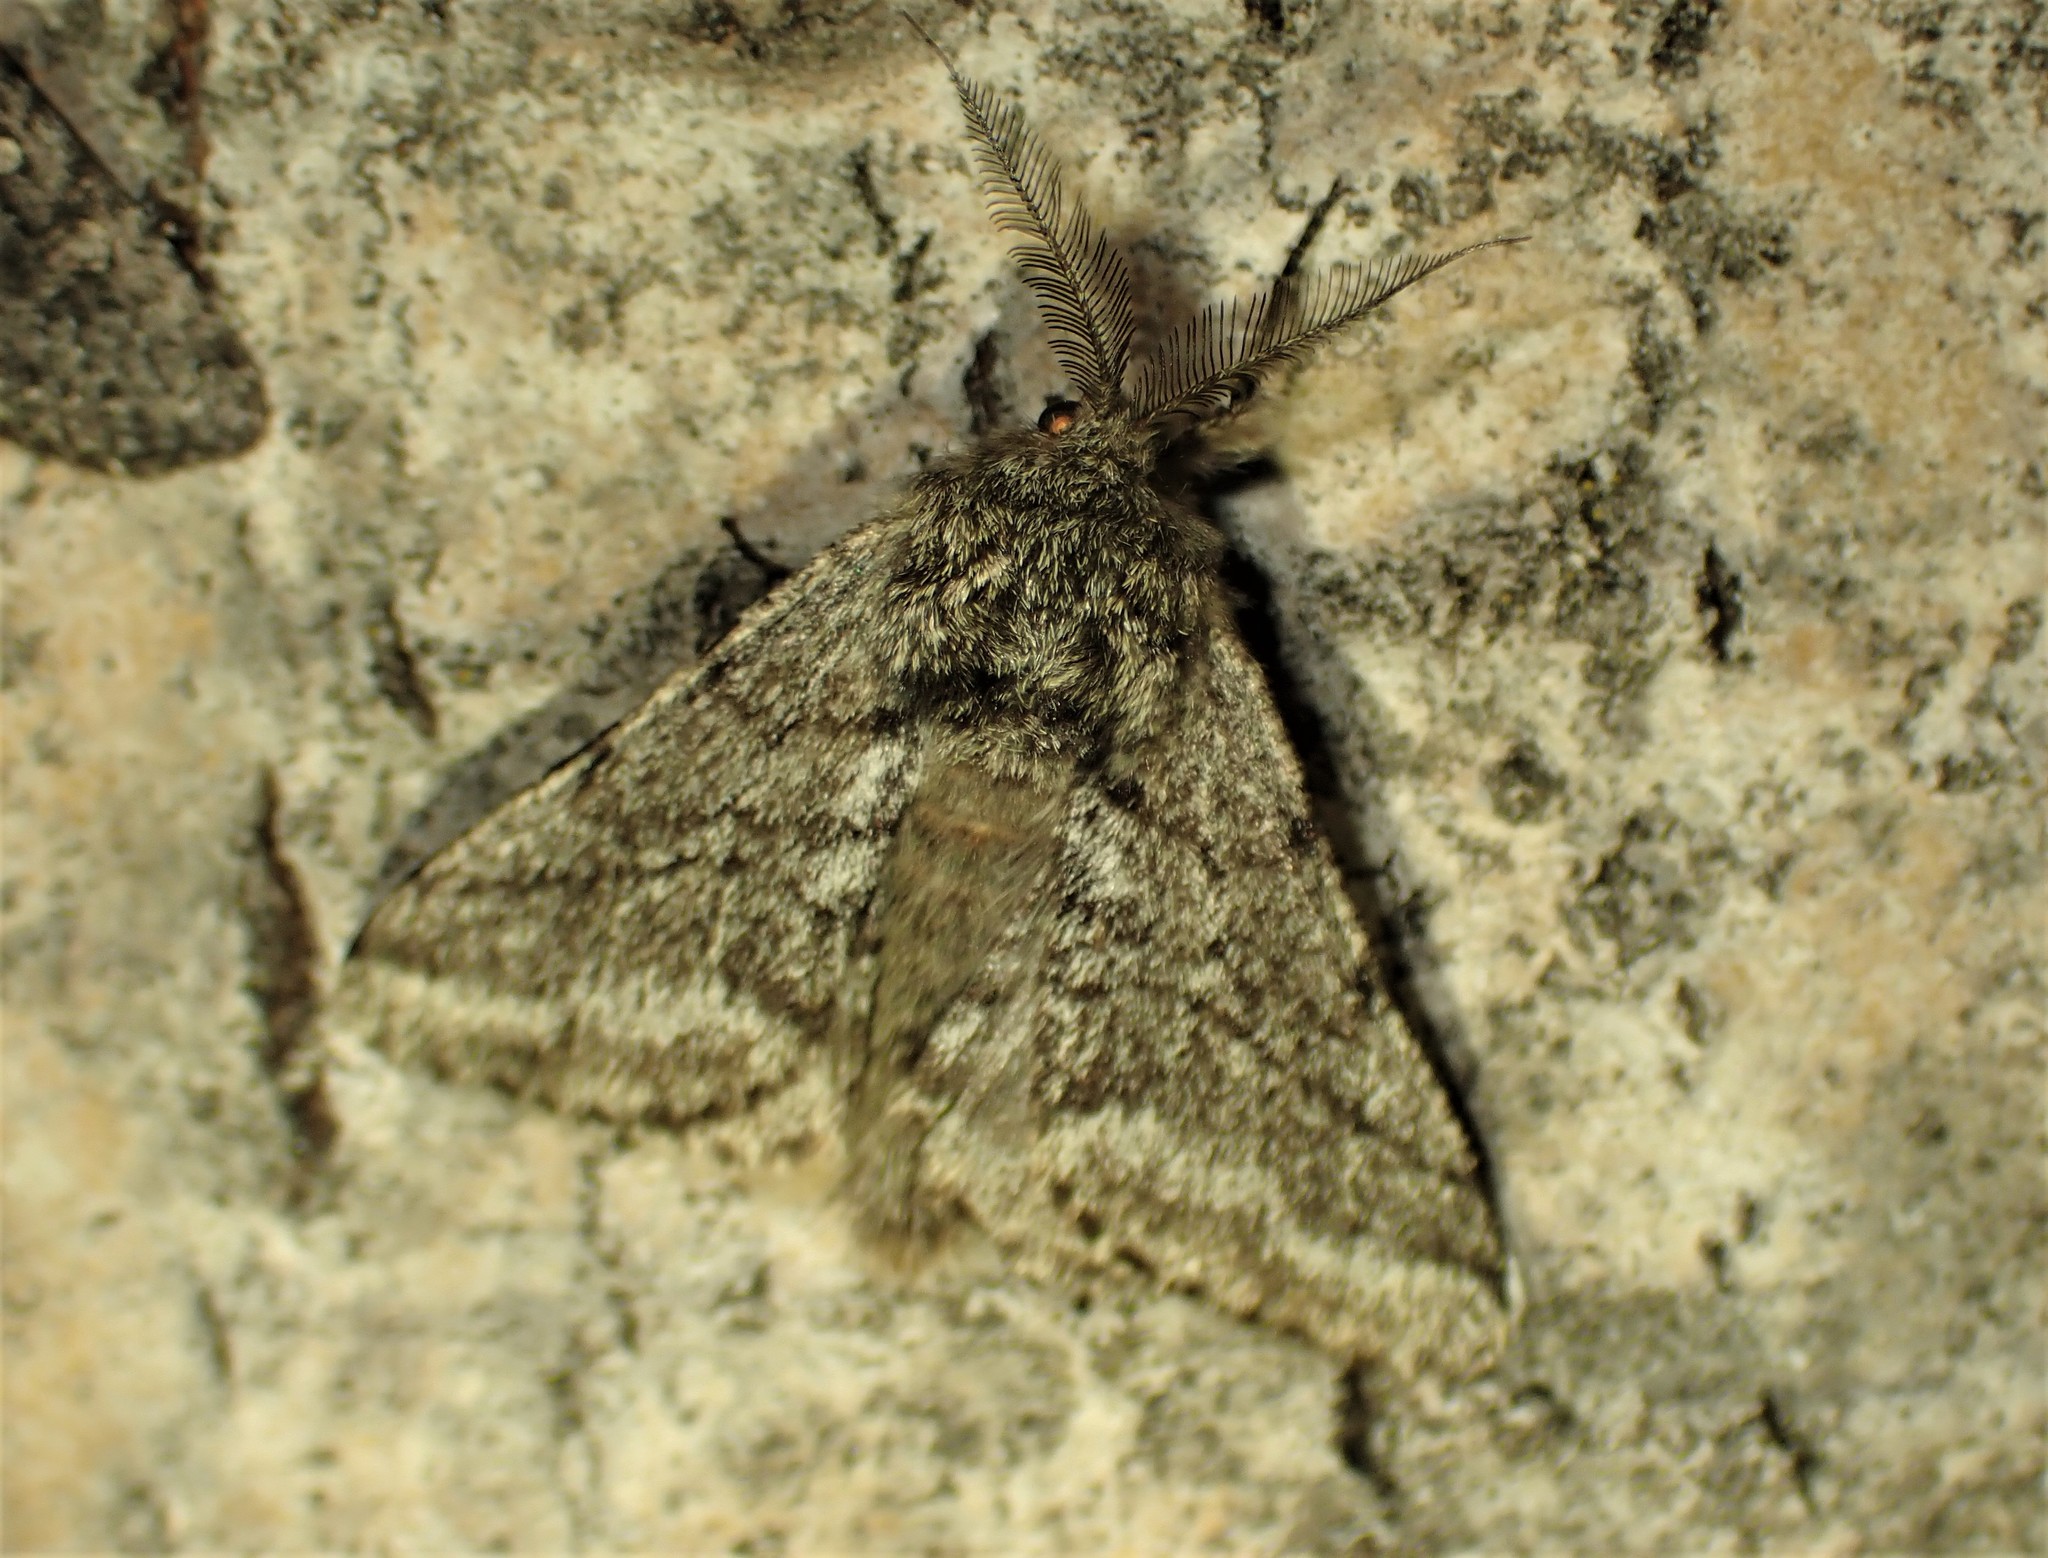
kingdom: Animalia
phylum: Arthropoda
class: Insecta
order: Lepidoptera
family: Geometridae
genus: Lycia
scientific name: Lycia ursaria
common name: Stout spanworm
